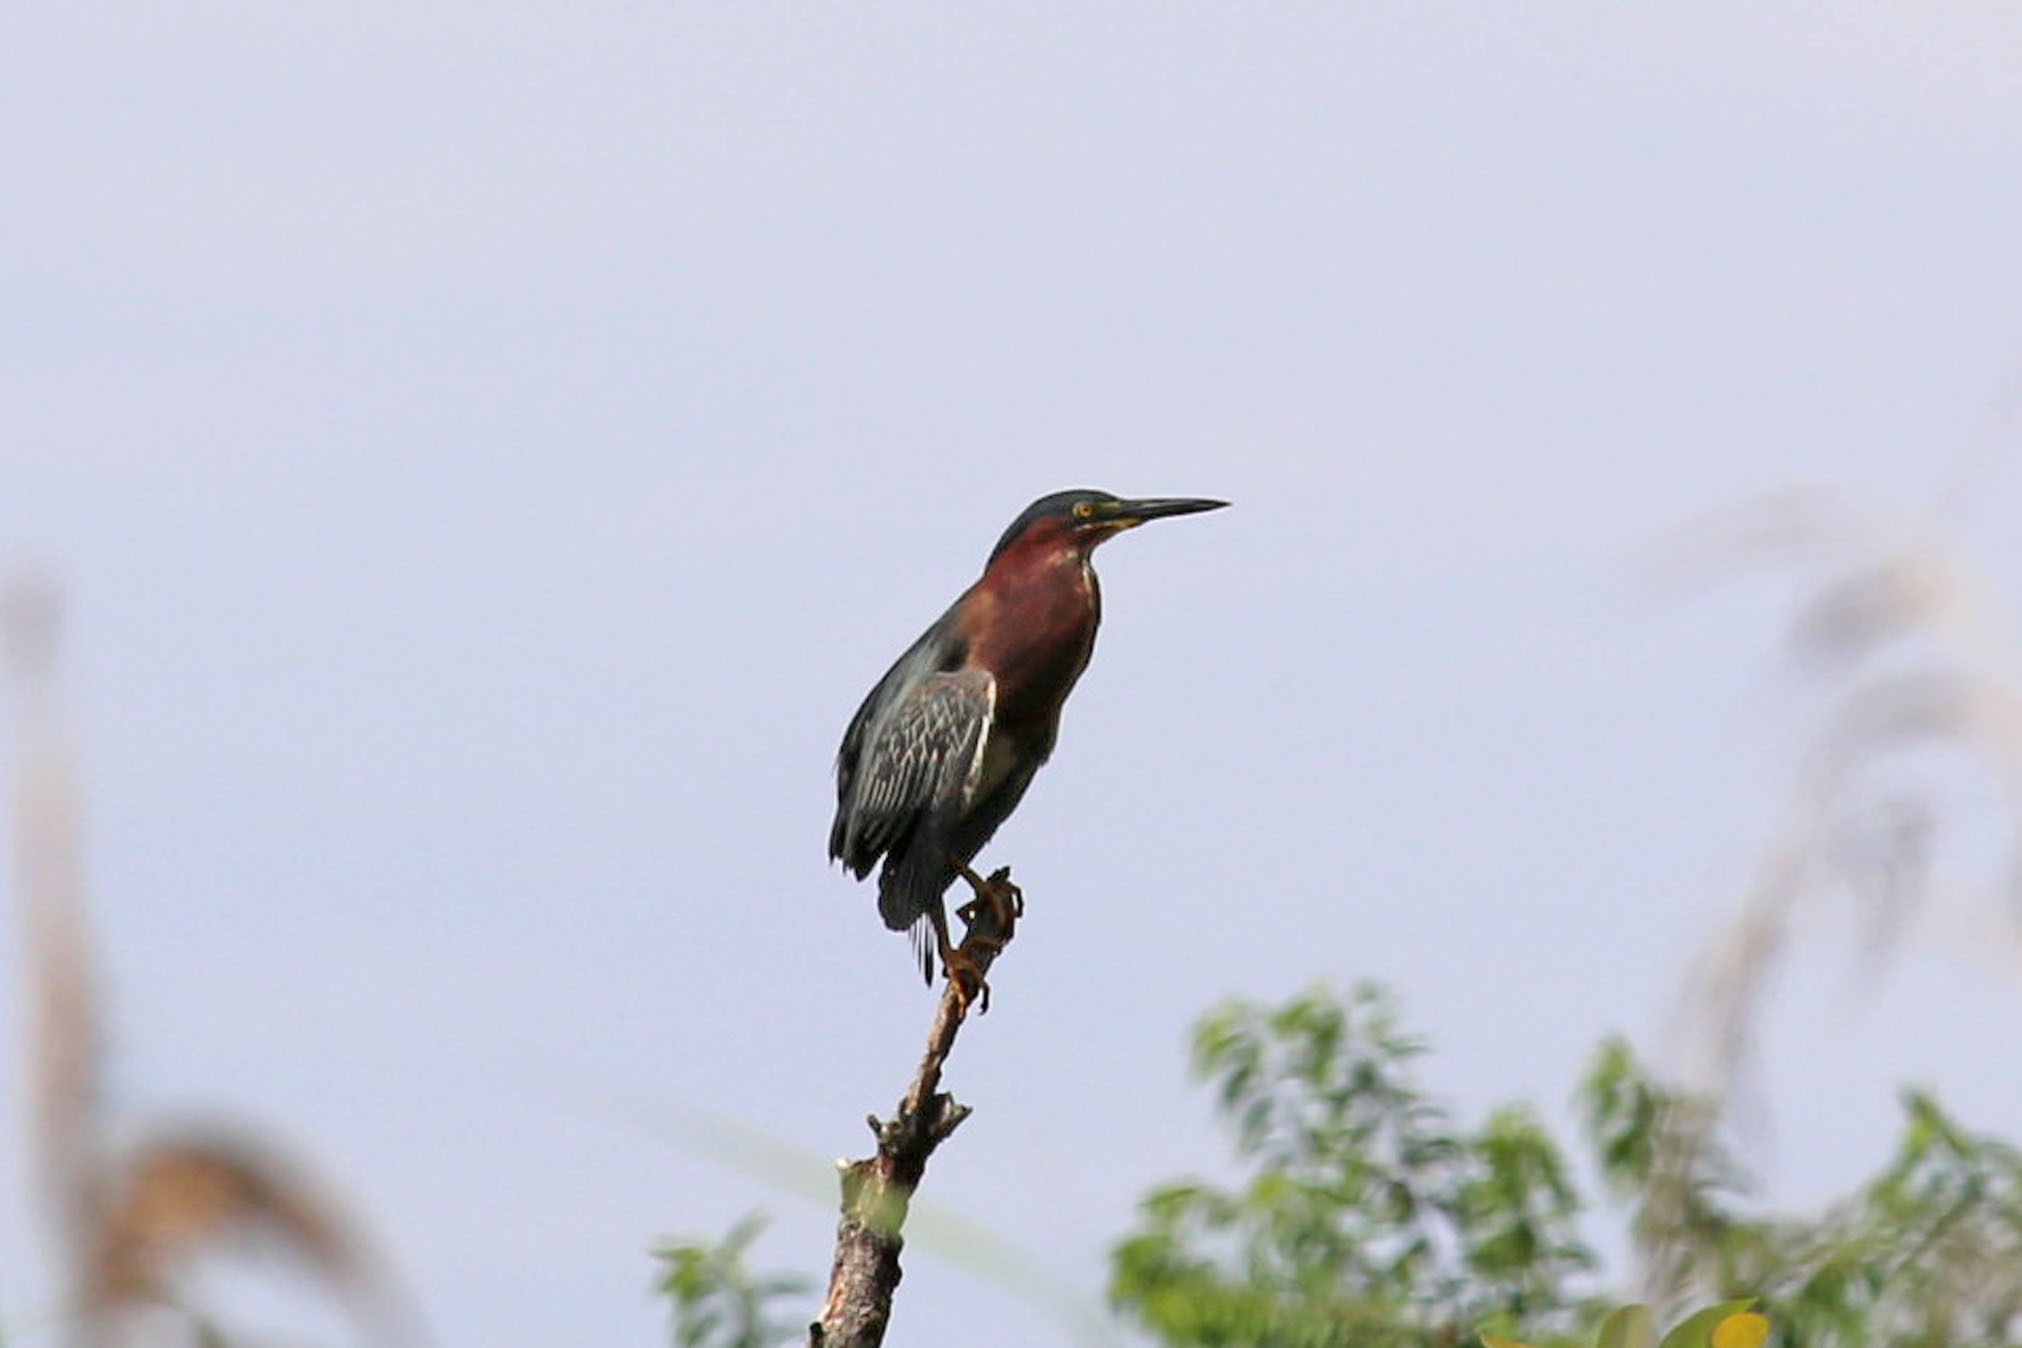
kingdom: Animalia
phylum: Chordata
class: Aves
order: Pelecaniformes
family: Ardeidae
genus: Butorides
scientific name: Butorides virescens
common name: Green heron
